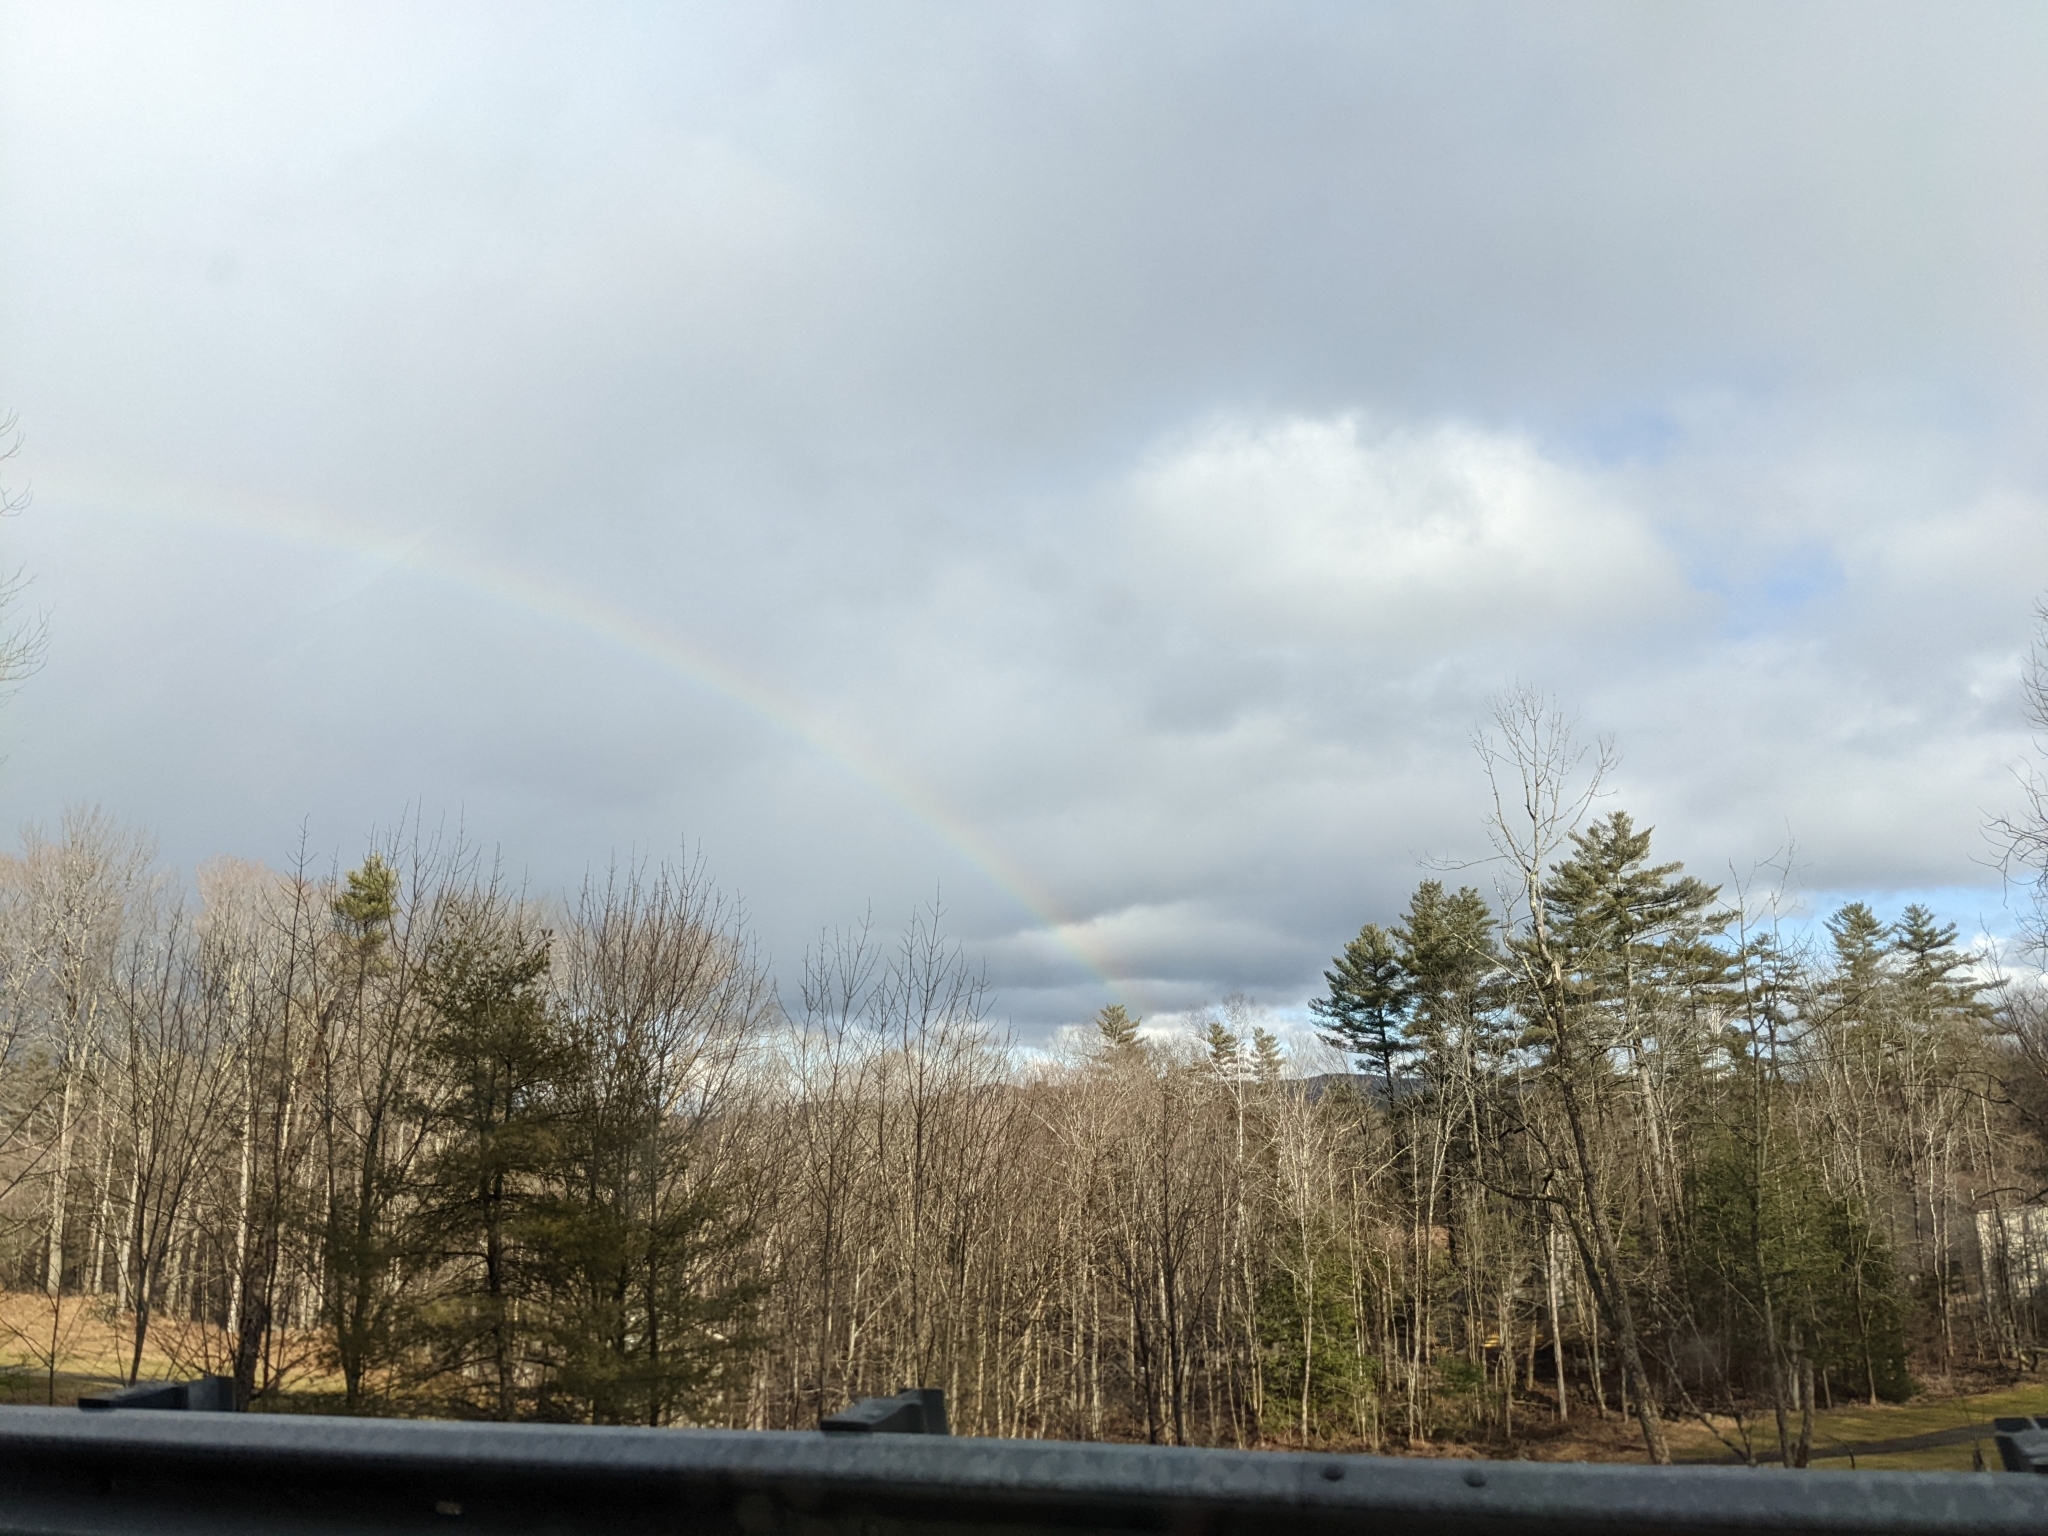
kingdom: Plantae
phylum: Tracheophyta
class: Pinopsida
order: Pinales
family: Pinaceae
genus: Pinus
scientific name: Pinus strobus
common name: Weymouth pine
